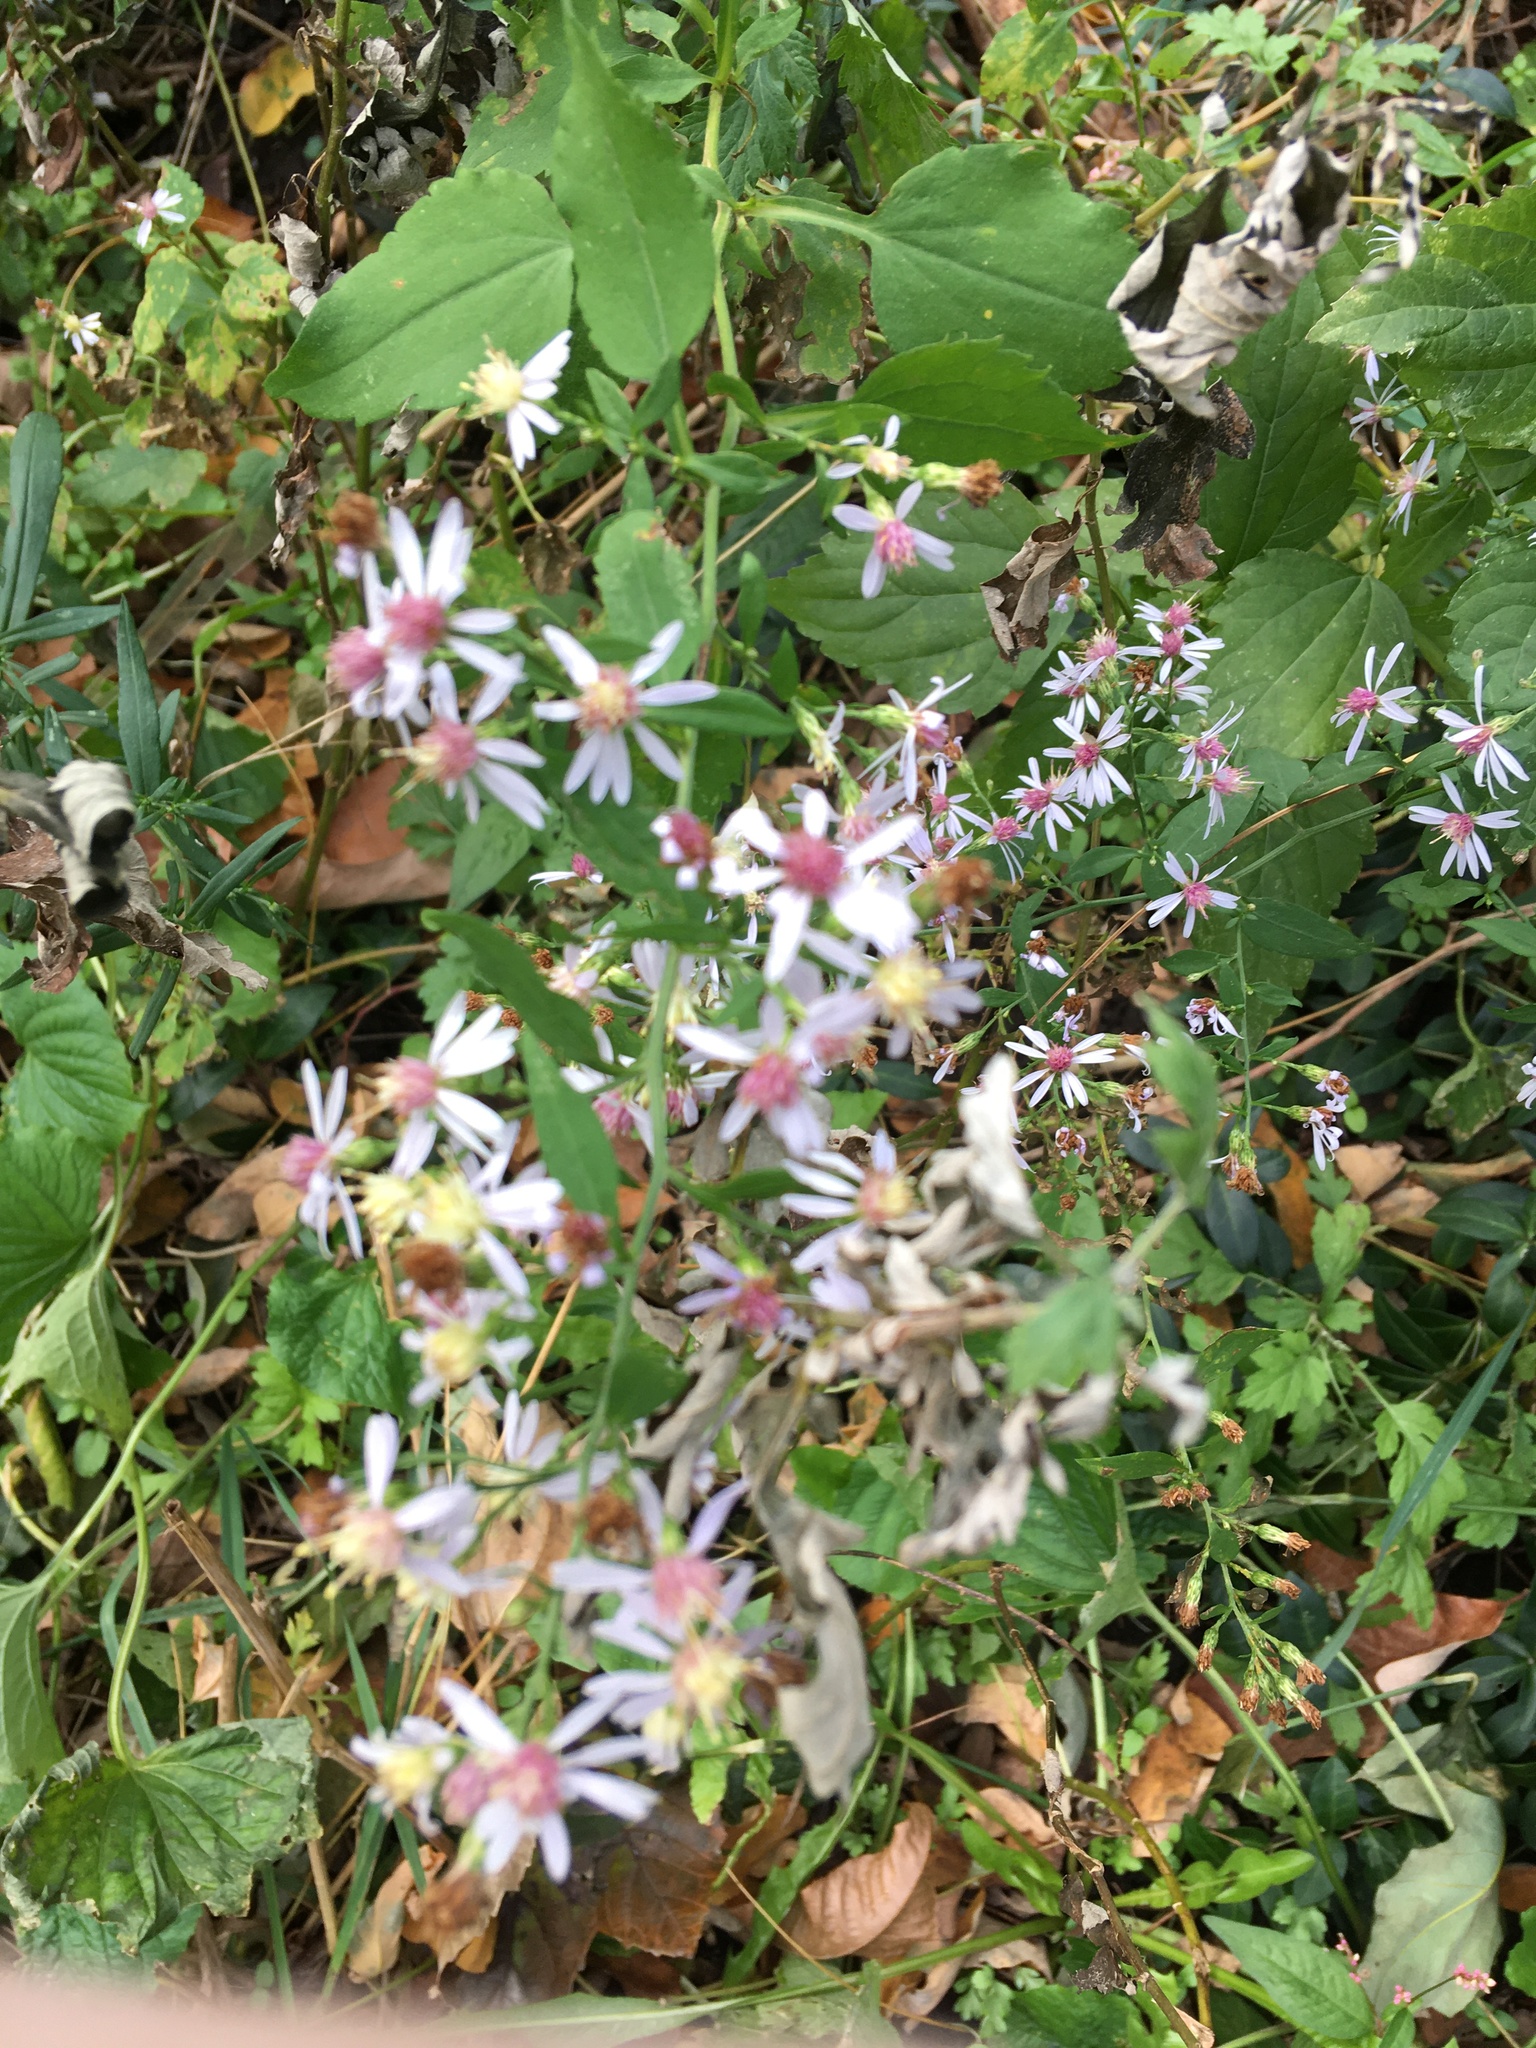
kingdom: Plantae
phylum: Tracheophyta
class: Magnoliopsida
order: Asterales
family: Asteraceae
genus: Symphyotrichum
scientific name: Symphyotrichum cordifolium
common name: Beeweed
